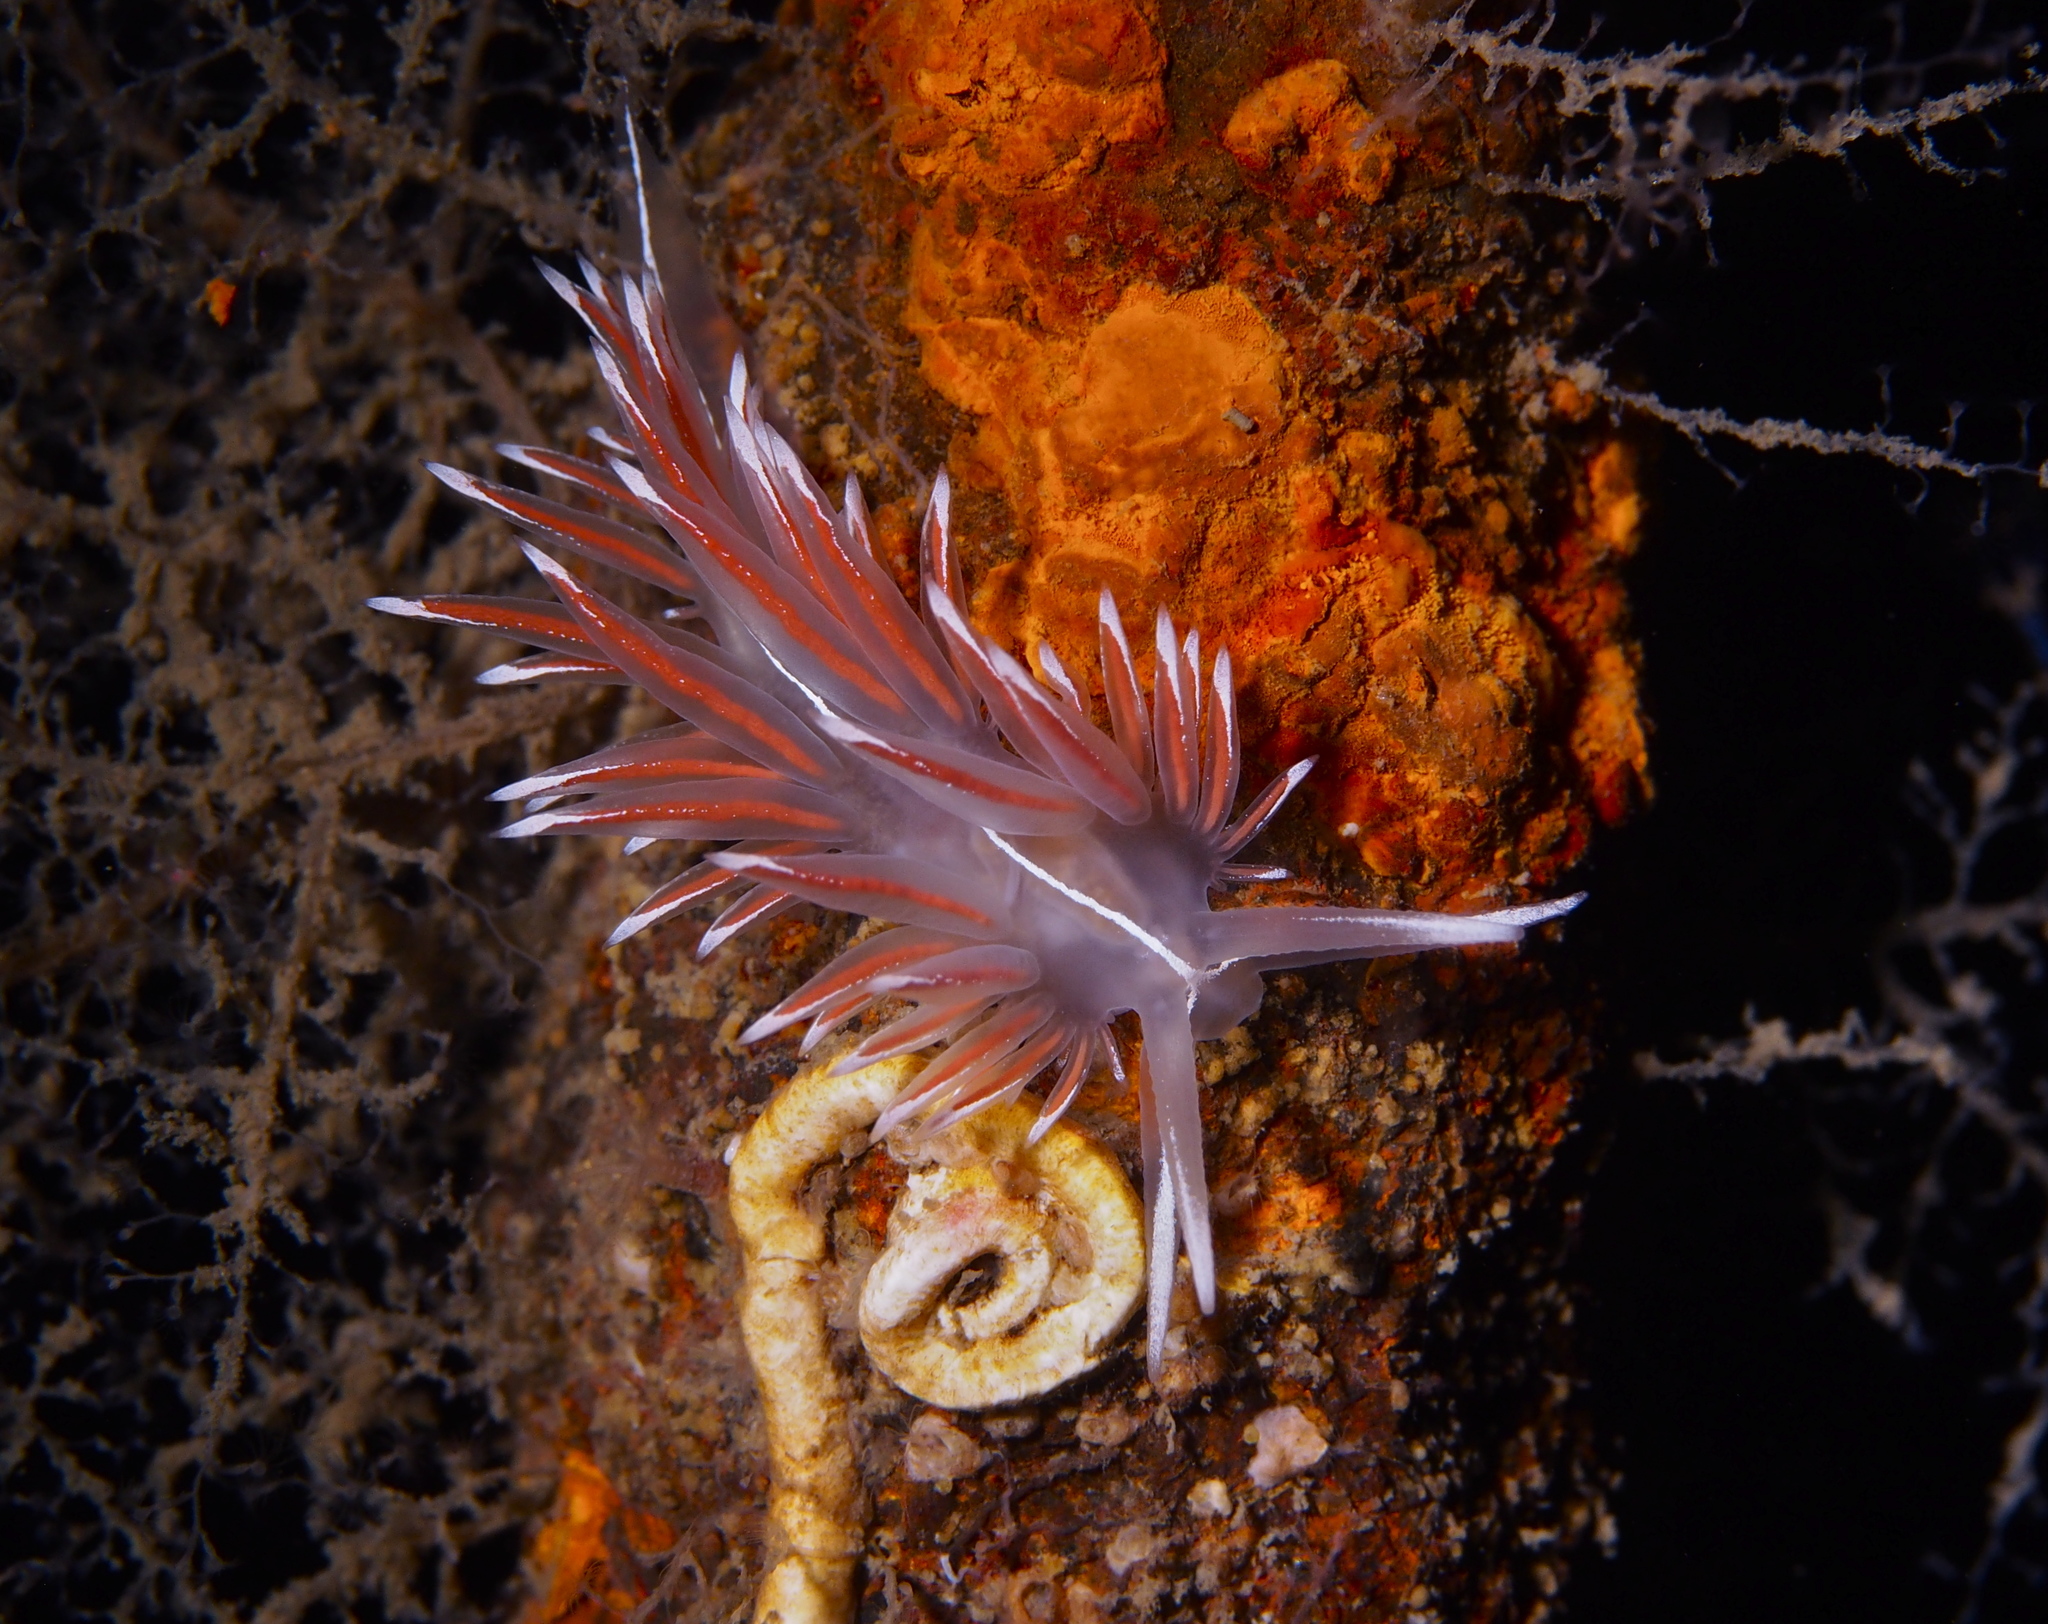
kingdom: Animalia
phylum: Mollusca
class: Gastropoda
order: Nudibranchia
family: Coryphellidae
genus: Coryphella
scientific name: Coryphella lineata
